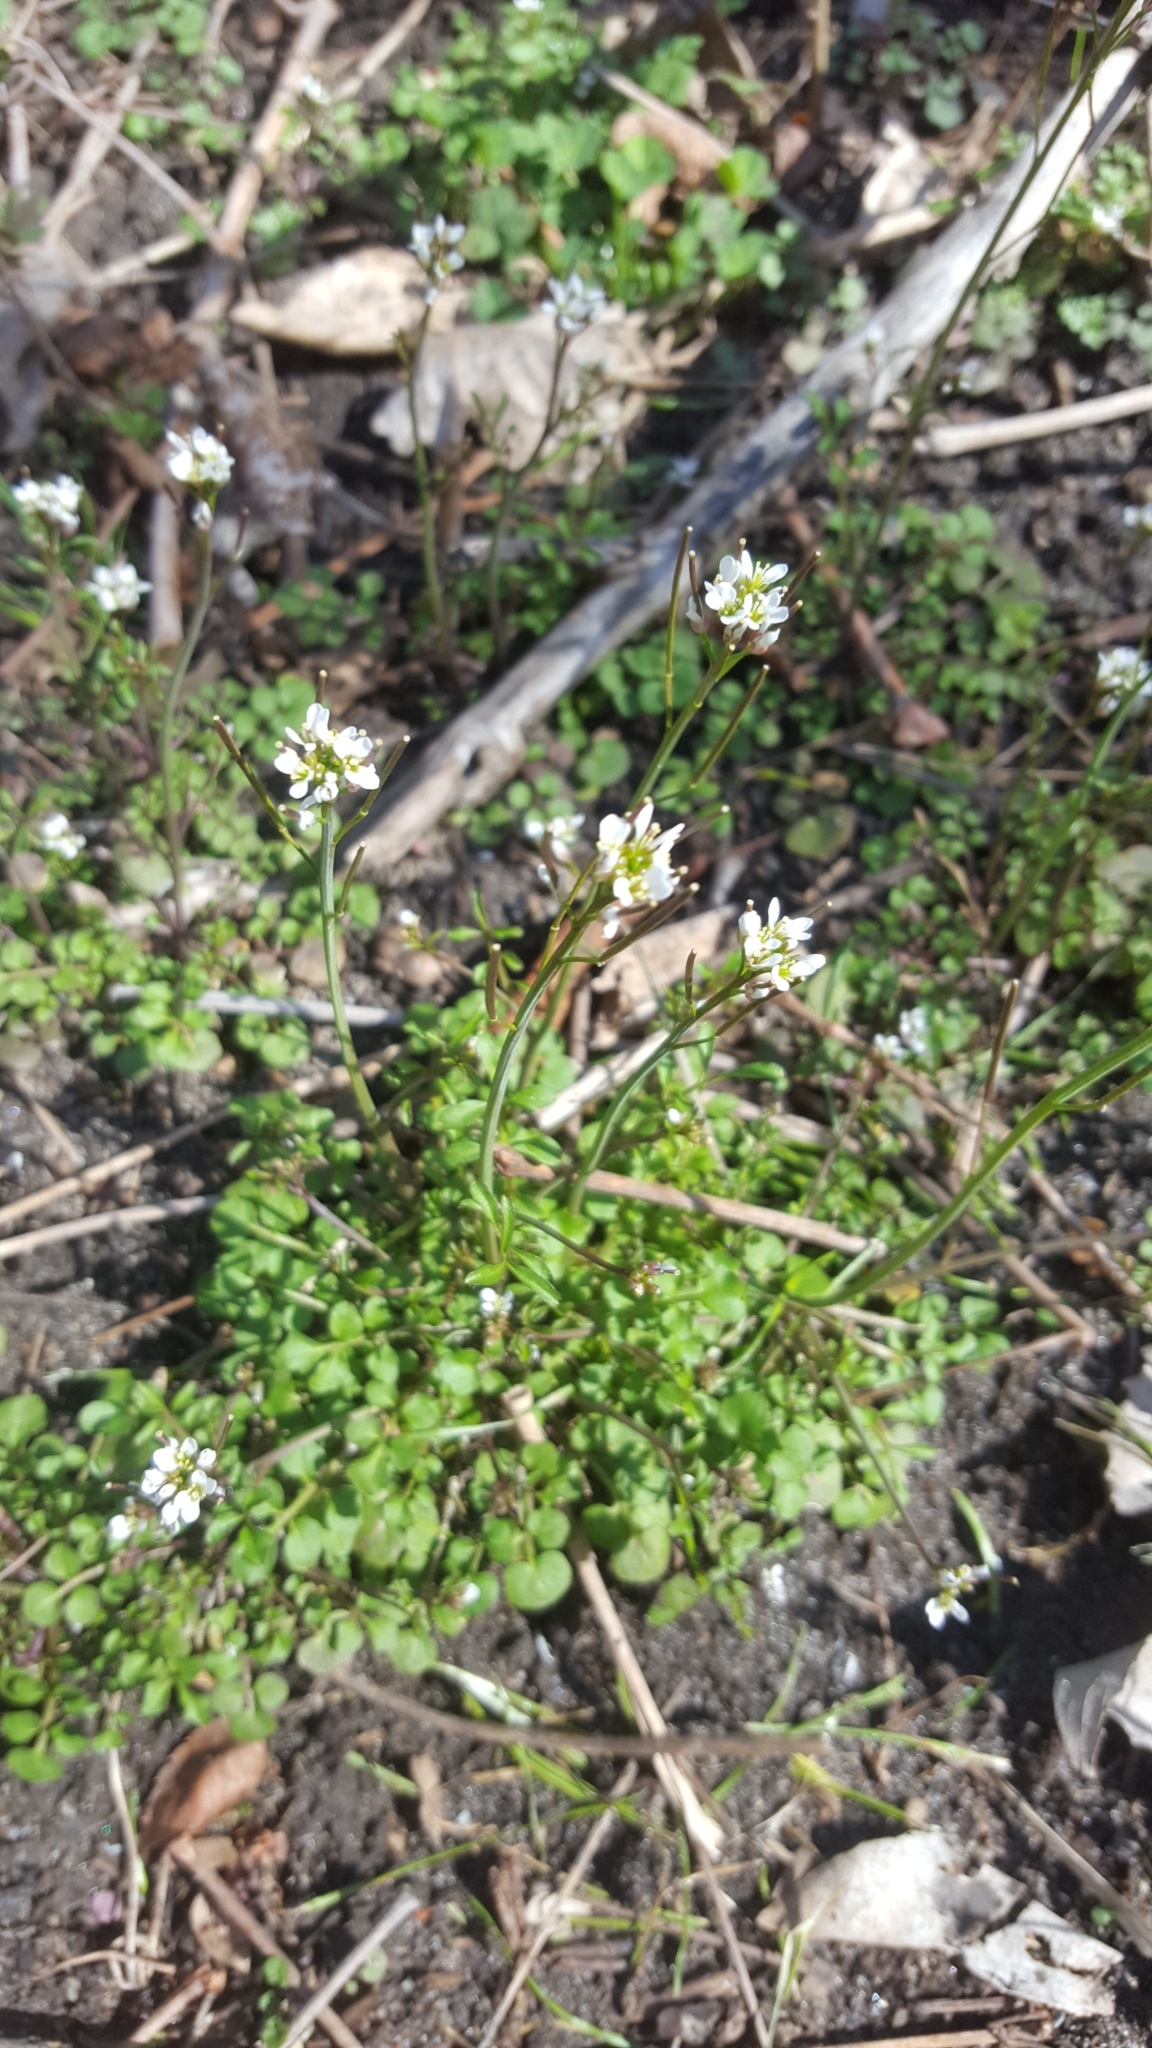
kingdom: Plantae
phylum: Tracheophyta
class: Magnoliopsida
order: Brassicales
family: Brassicaceae
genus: Cardamine
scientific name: Cardamine hirsuta
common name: Hairy bittercress
